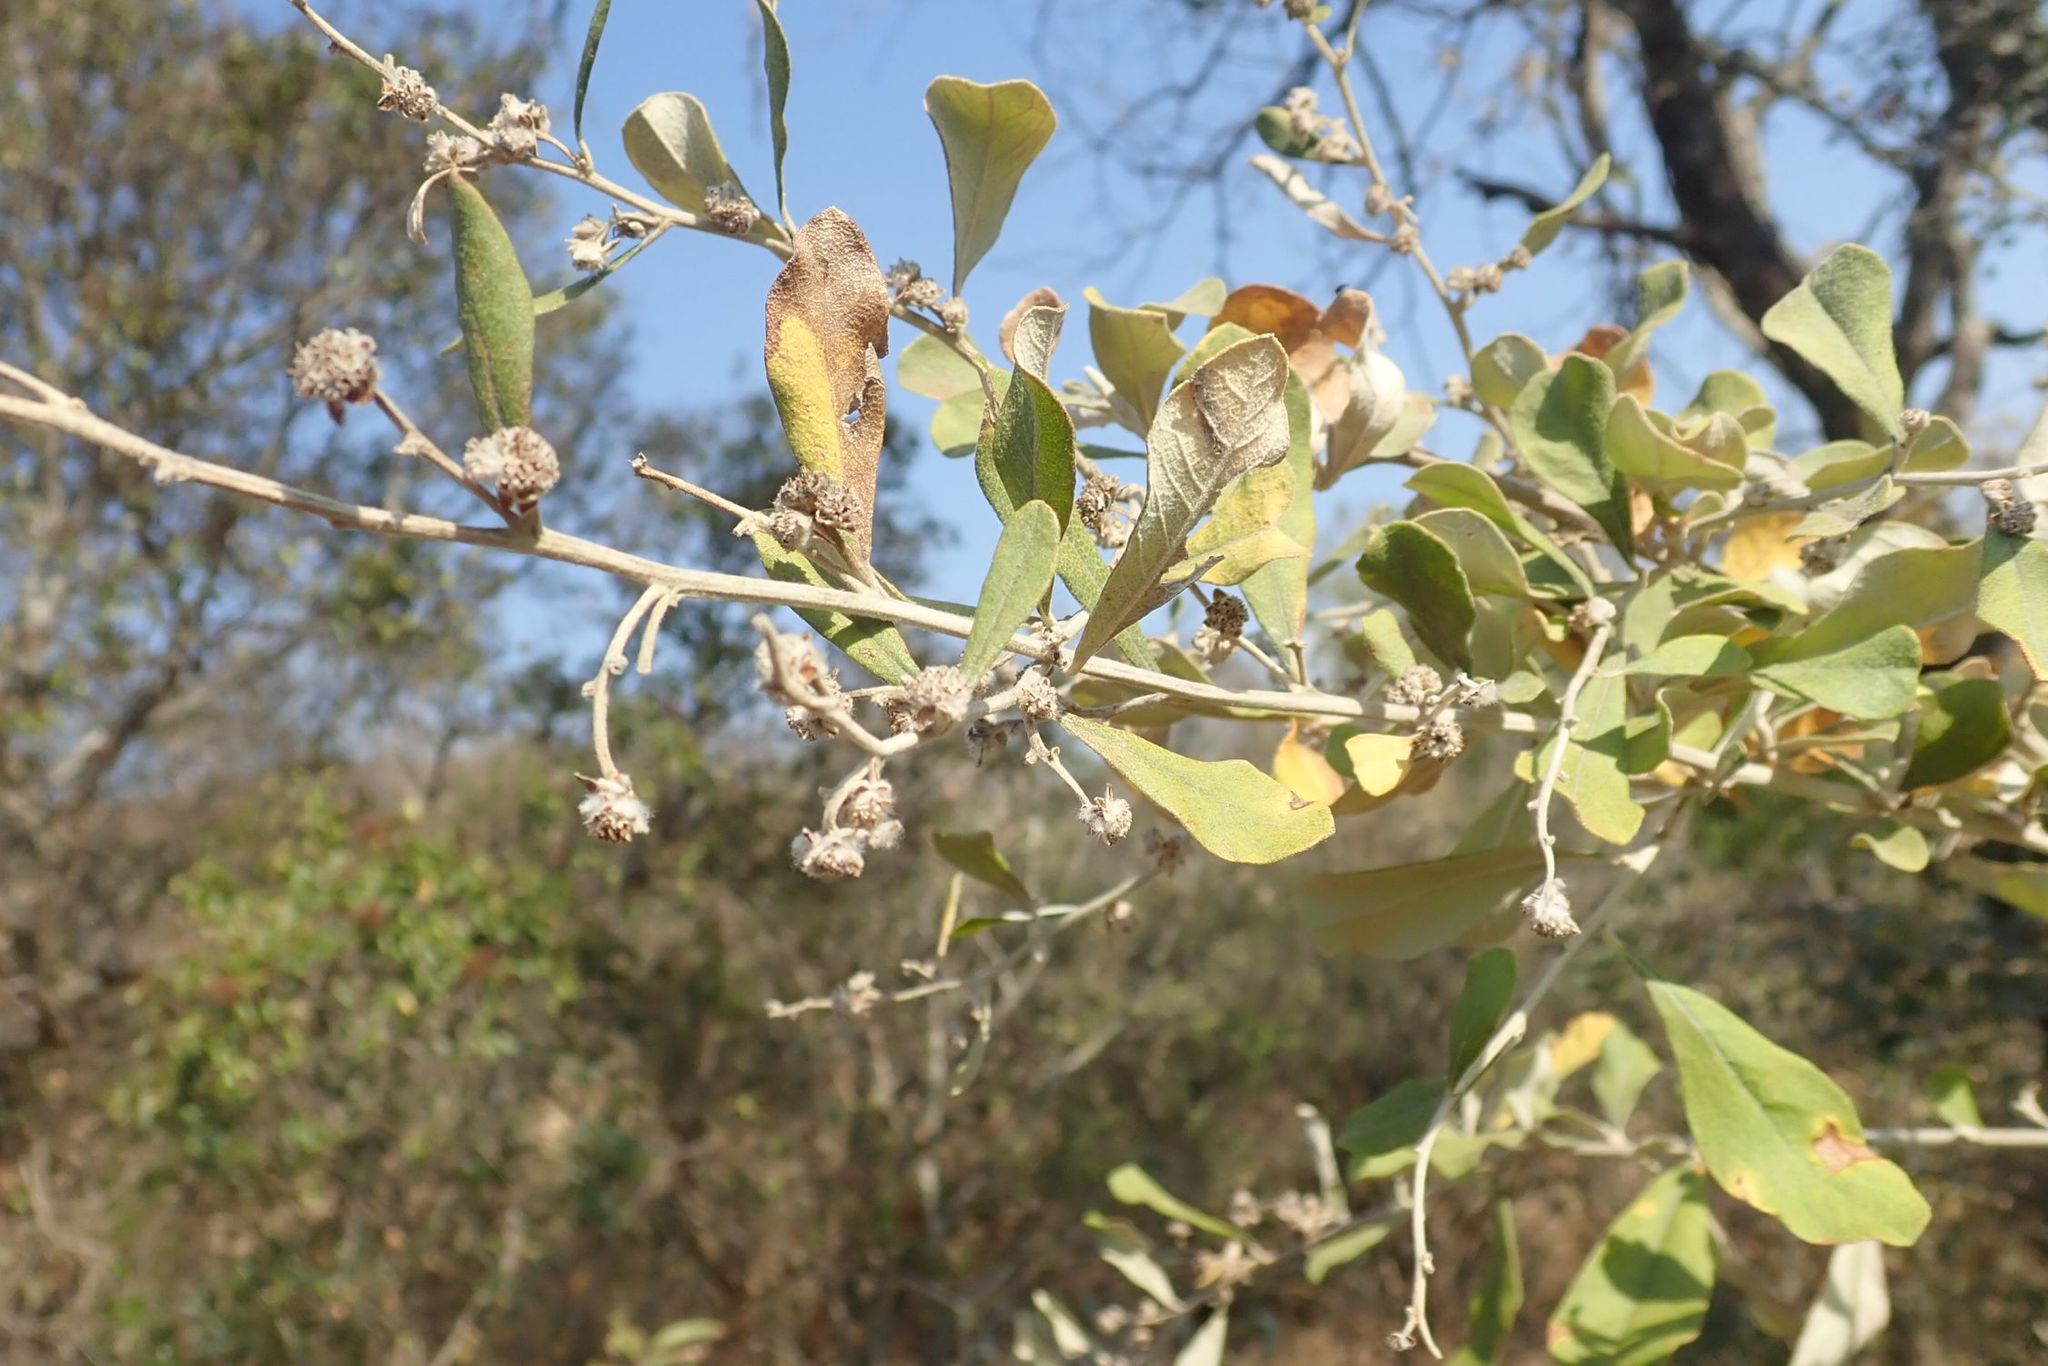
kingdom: Plantae
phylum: Tracheophyta
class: Magnoliopsida
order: Asterales
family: Asteraceae
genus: Tarchonanthus
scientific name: Tarchonanthus parvicapitulatus
